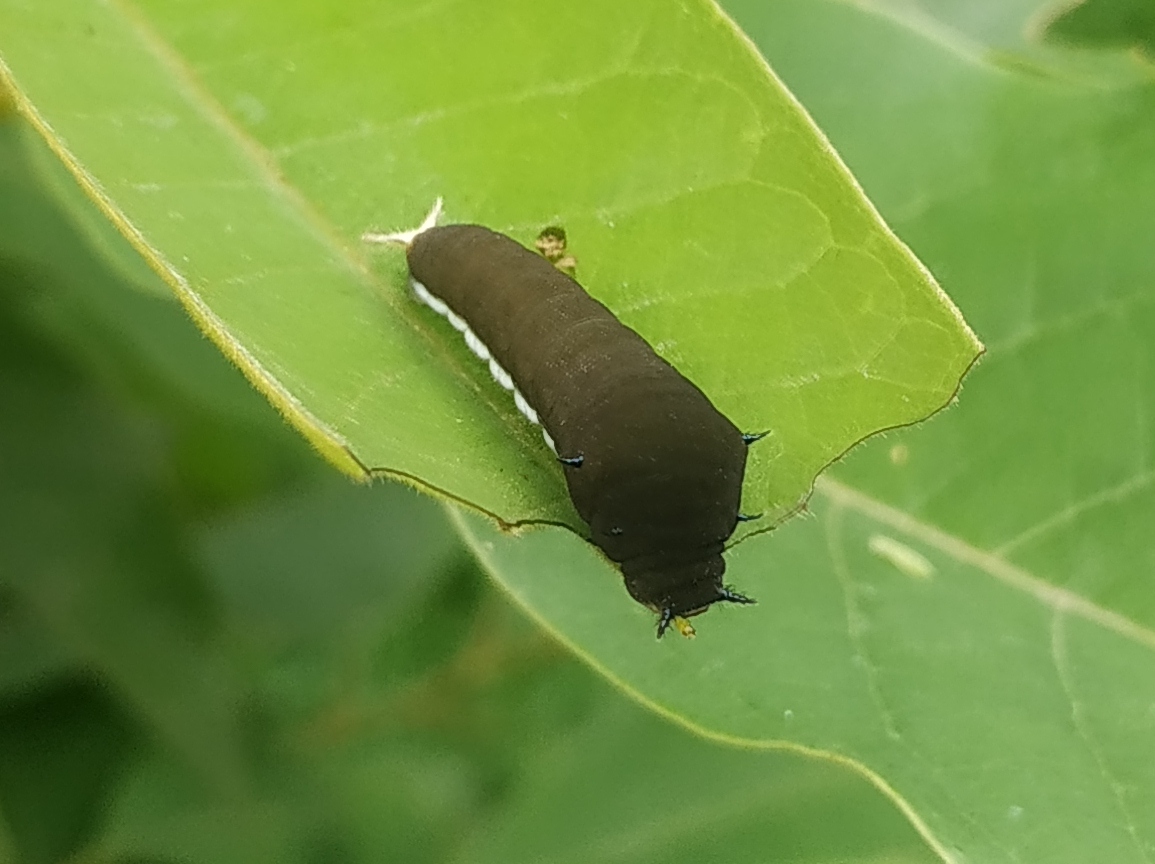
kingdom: Animalia
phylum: Arthropoda
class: Insecta
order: Lepidoptera
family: Papilionidae
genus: Graphium
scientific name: Graphium doson
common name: Common jay
